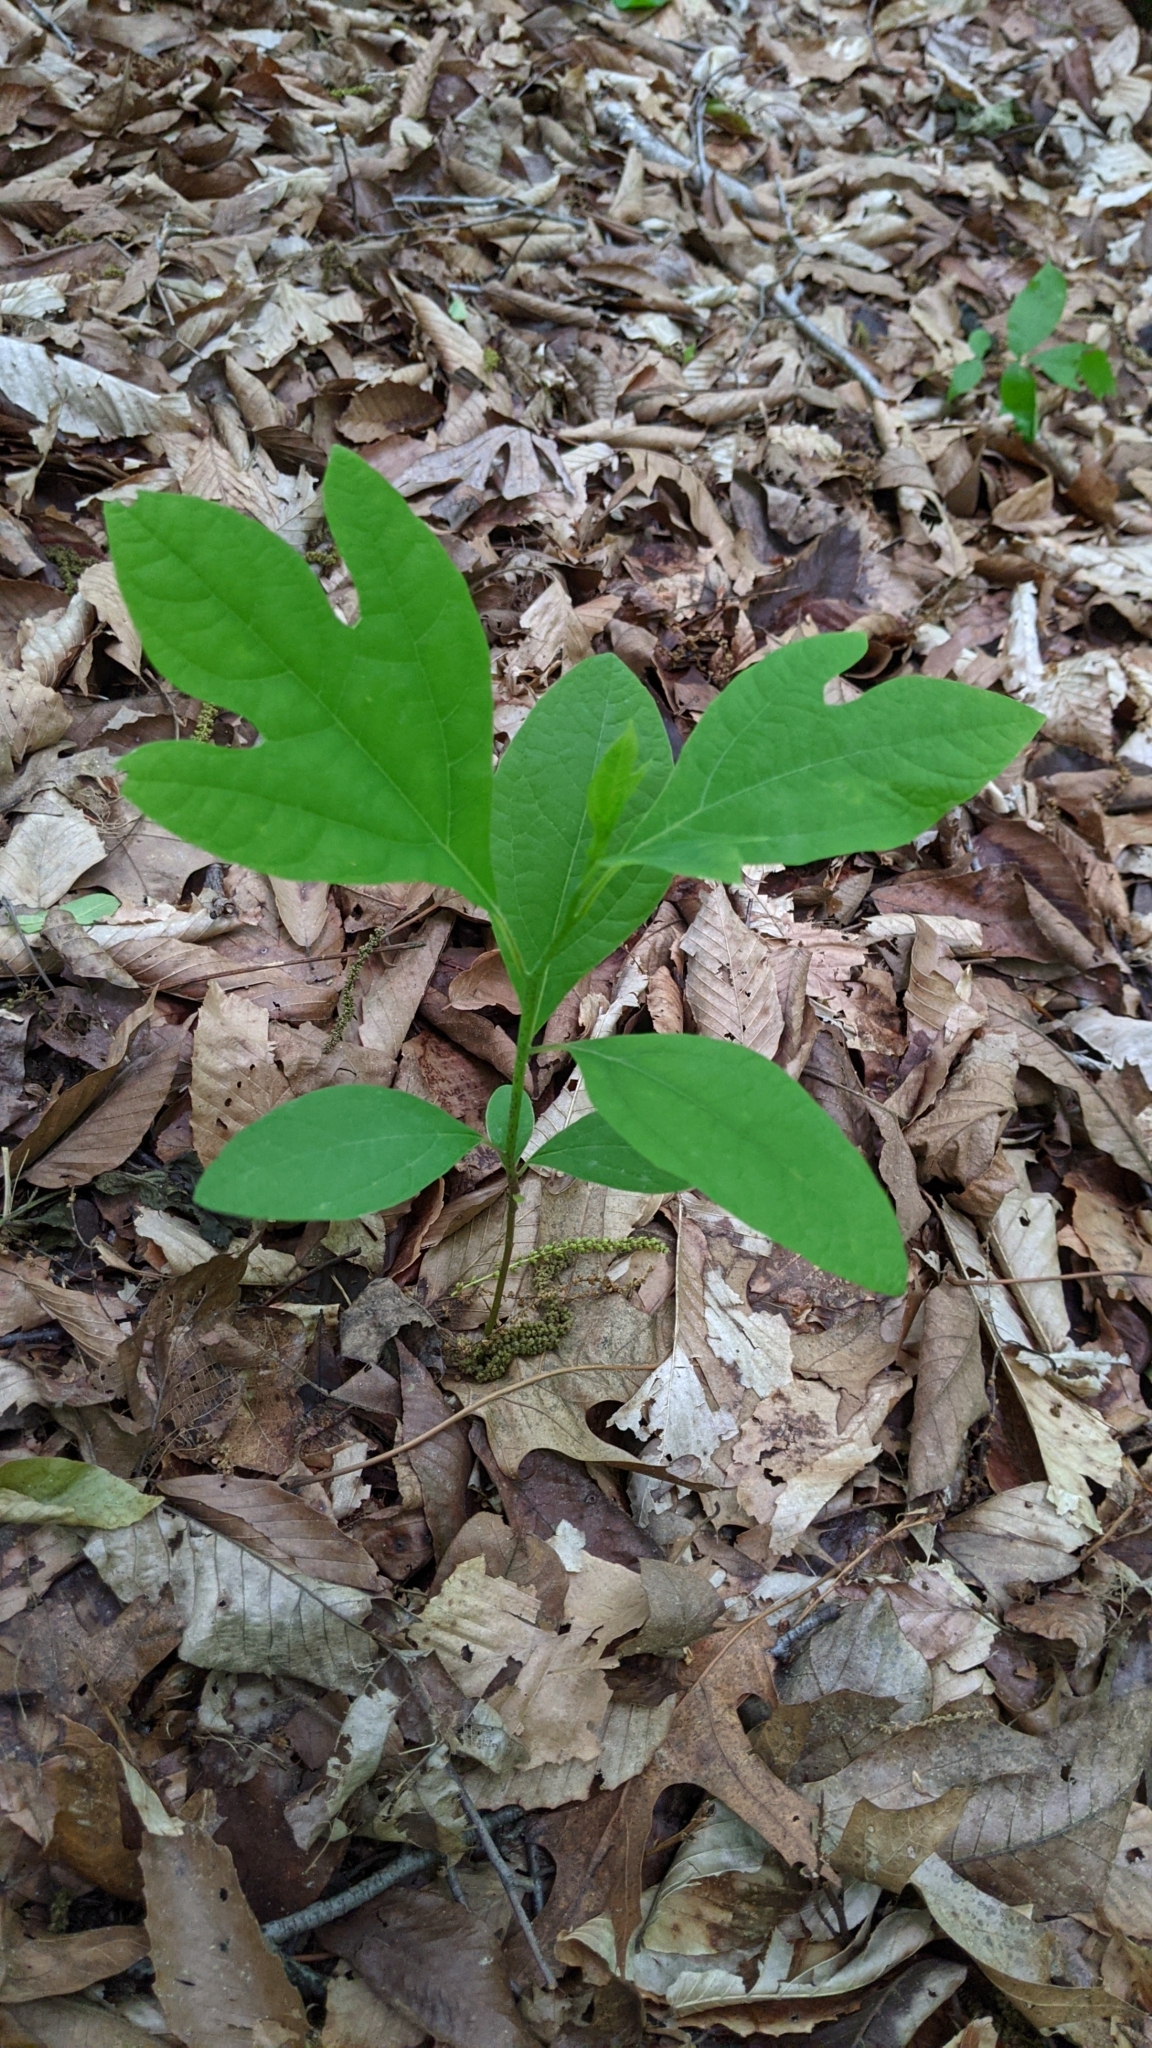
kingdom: Plantae
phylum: Tracheophyta
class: Magnoliopsida
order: Laurales
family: Lauraceae
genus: Sassafras
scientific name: Sassafras albidum
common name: Sassafras
